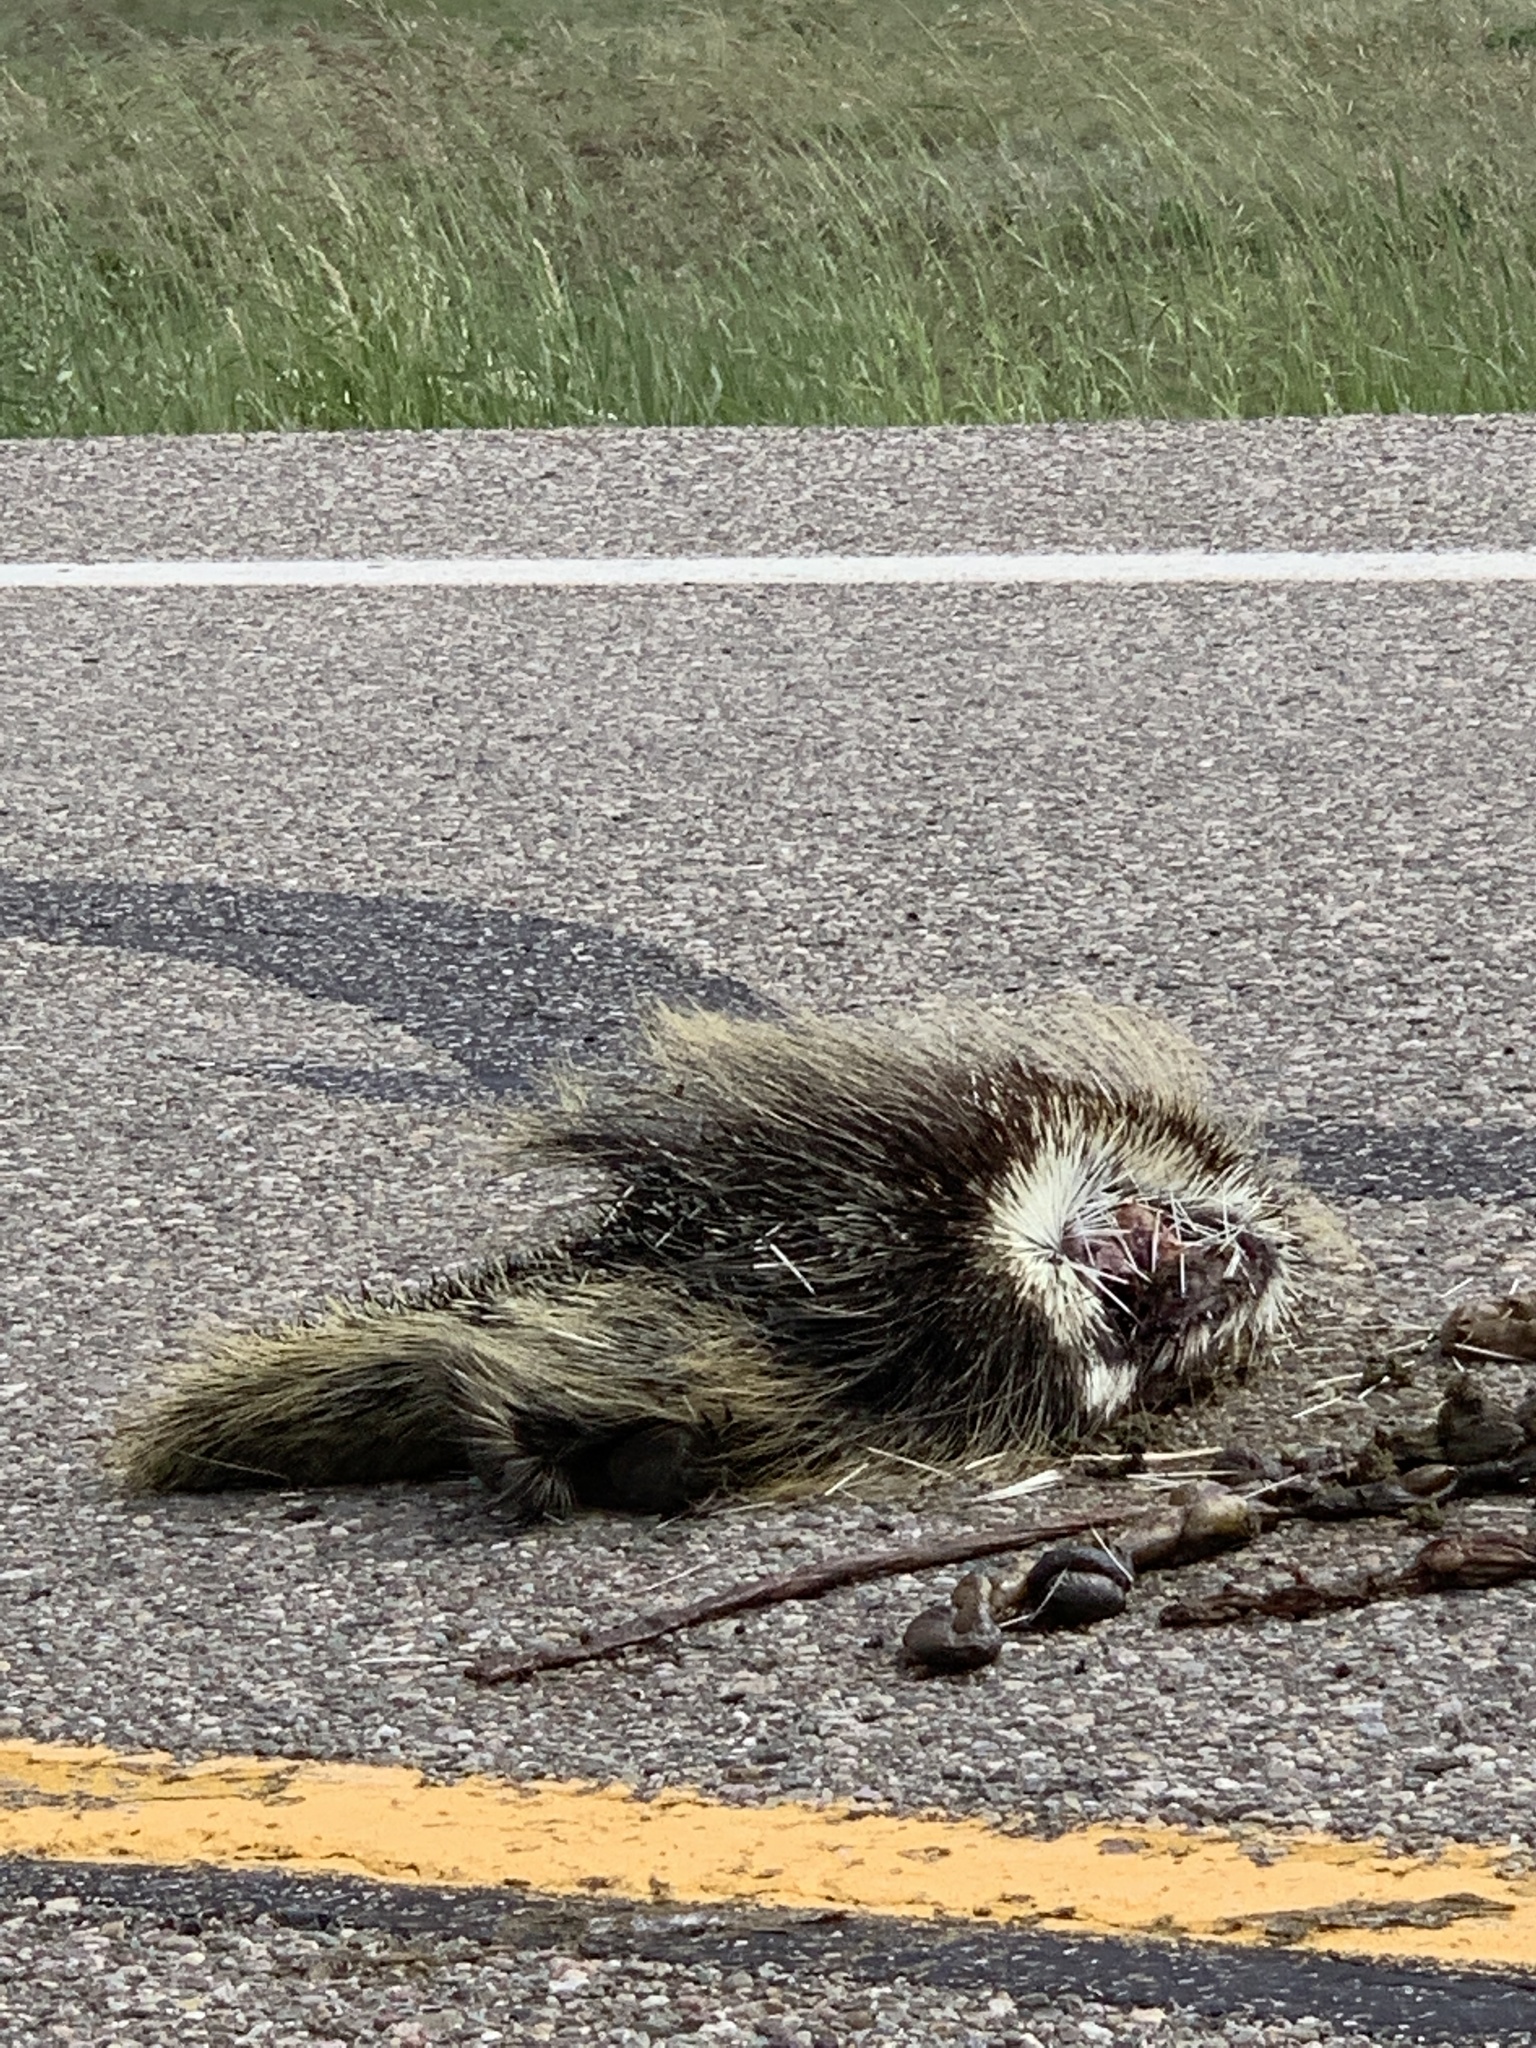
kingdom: Animalia
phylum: Chordata
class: Mammalia
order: Rodentia
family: Erethizontidae
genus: Erethizon
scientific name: Erethizon dorsatus
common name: North american porcupine
